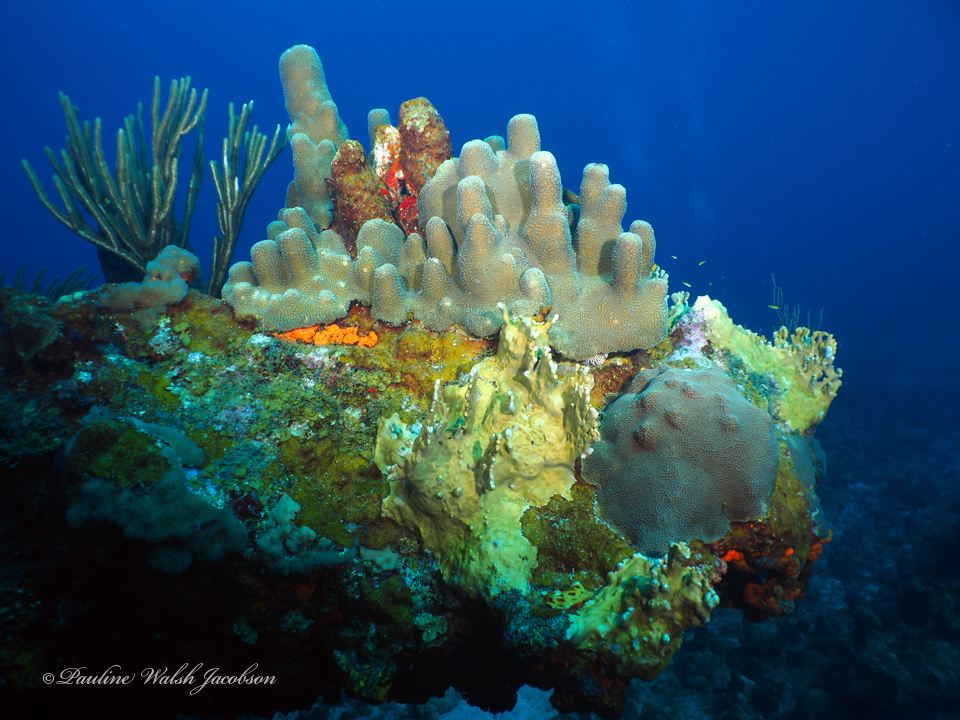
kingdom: Animalia
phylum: Cnidaria
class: Anthozoa
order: Scleractinia
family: Meandrinidae
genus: Dendrogyra
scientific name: Dendrogyra cylindrus
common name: Pillar coral
